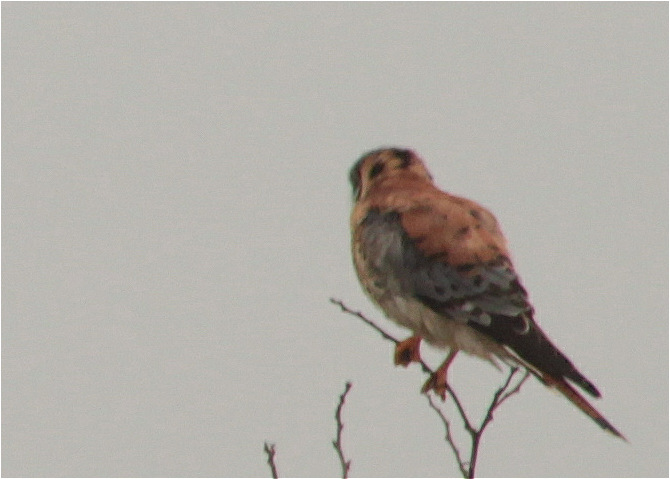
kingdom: Animalia
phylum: Chordata
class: Aves
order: Falconiformes
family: Falconidae
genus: Falco
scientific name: Falco sparverius
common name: American kestrel
